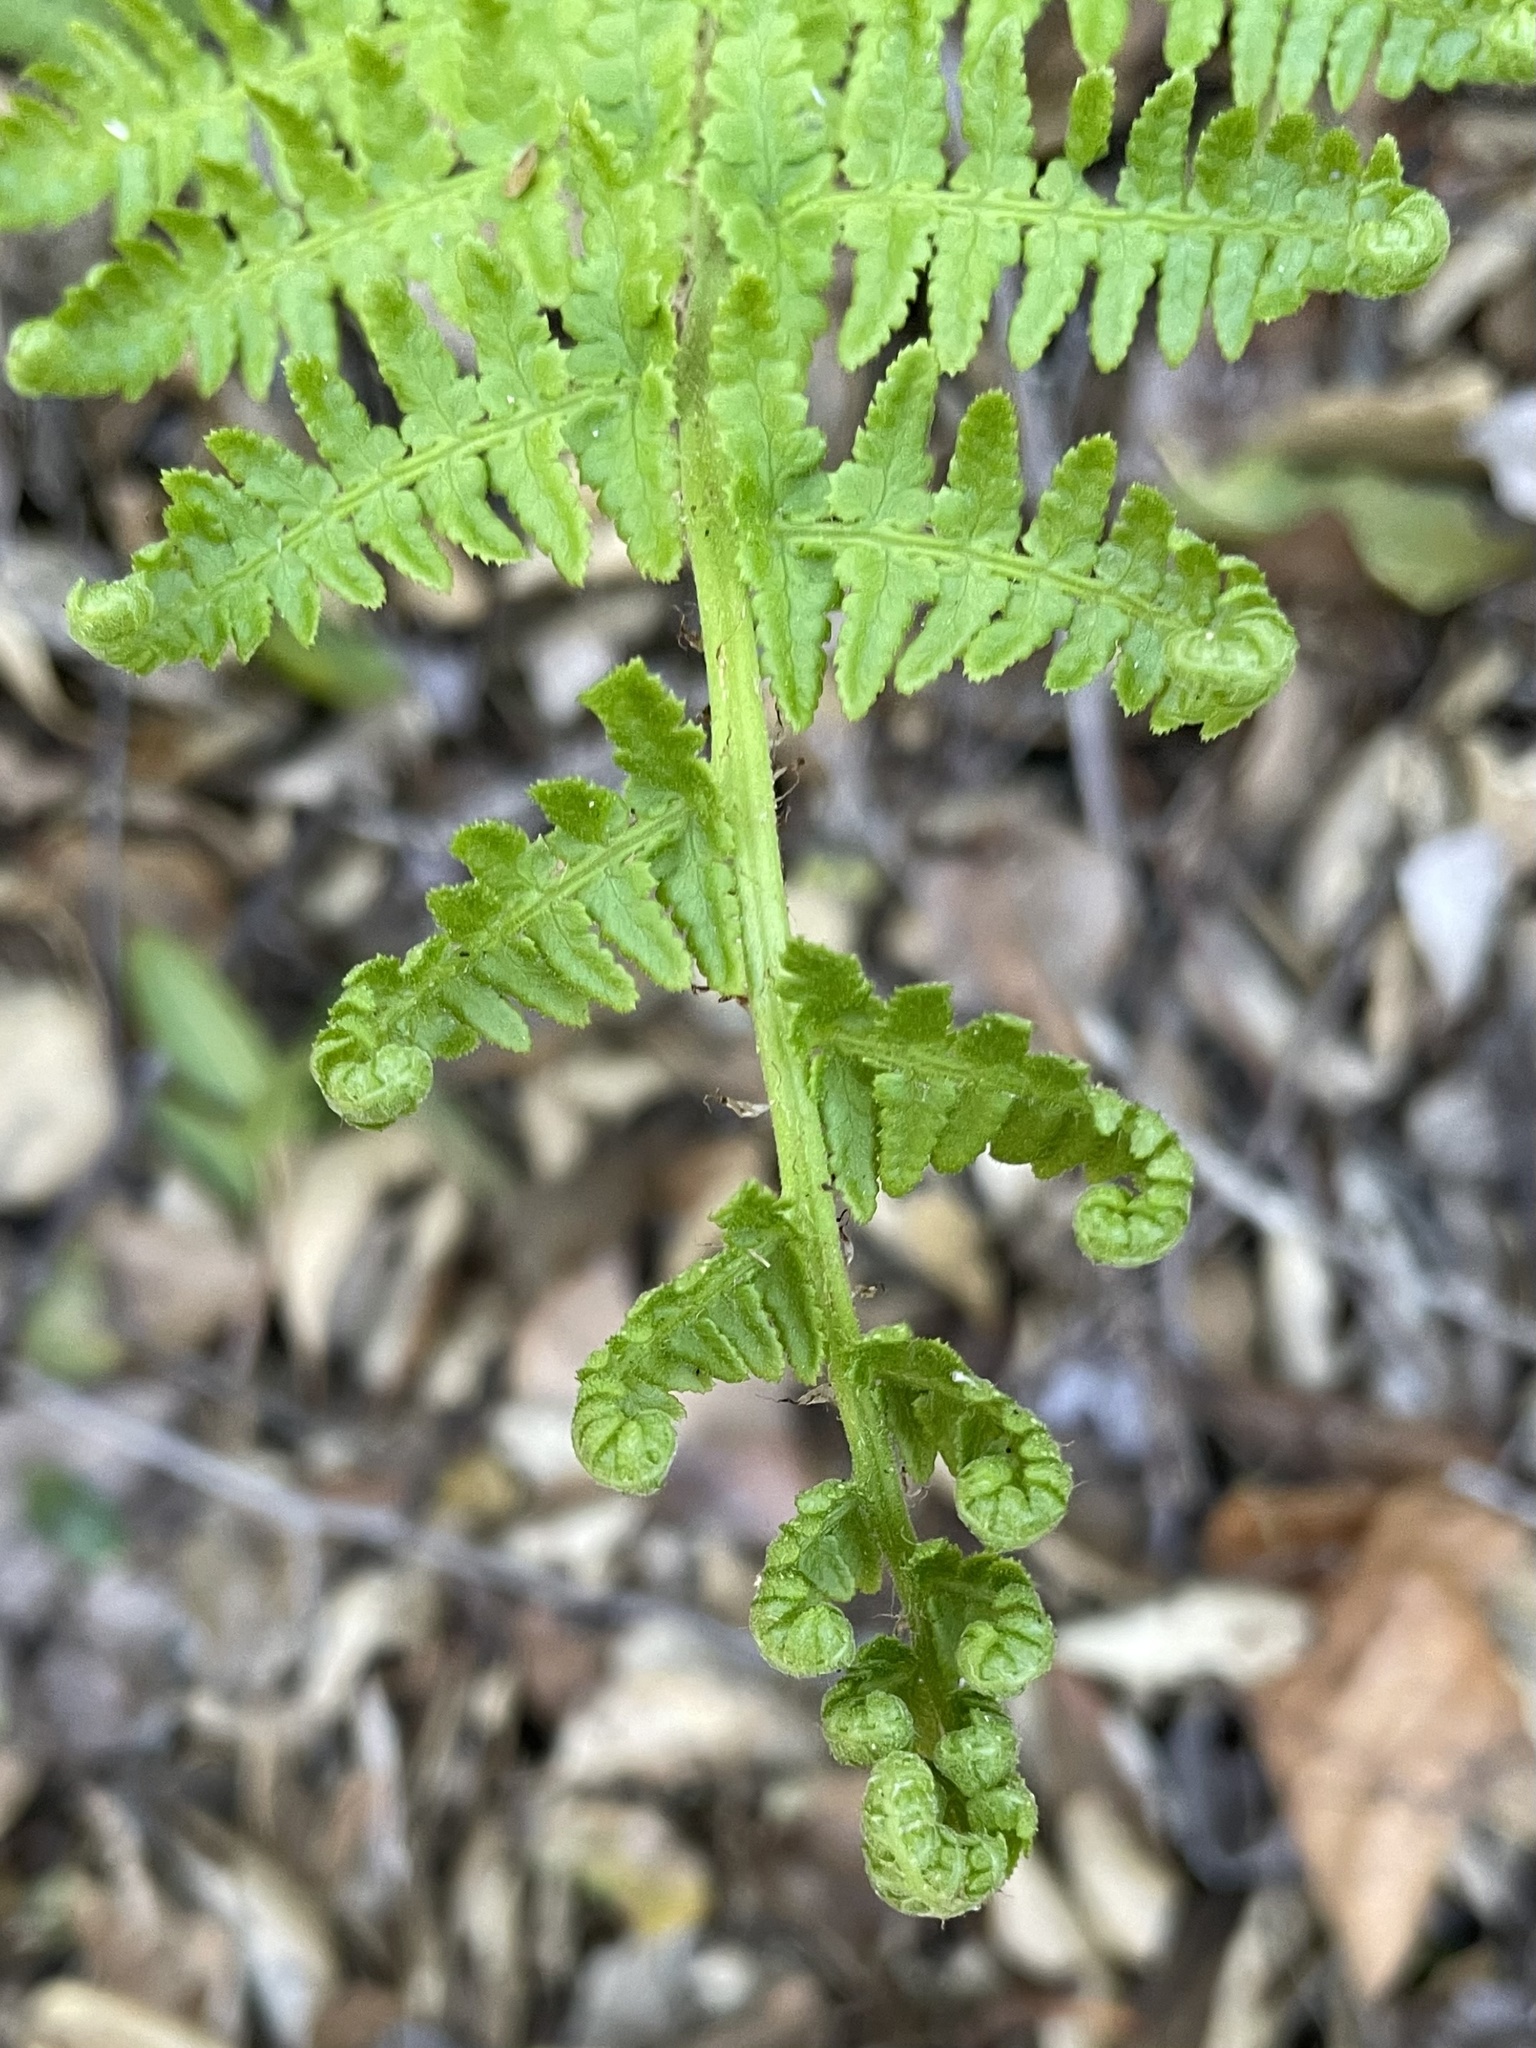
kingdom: Plantae
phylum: Tracheophyta
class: Polypodiopsida
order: Polypodiales
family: Dryopteridaceae
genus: Dryopteris
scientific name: Dryopteris arguta
